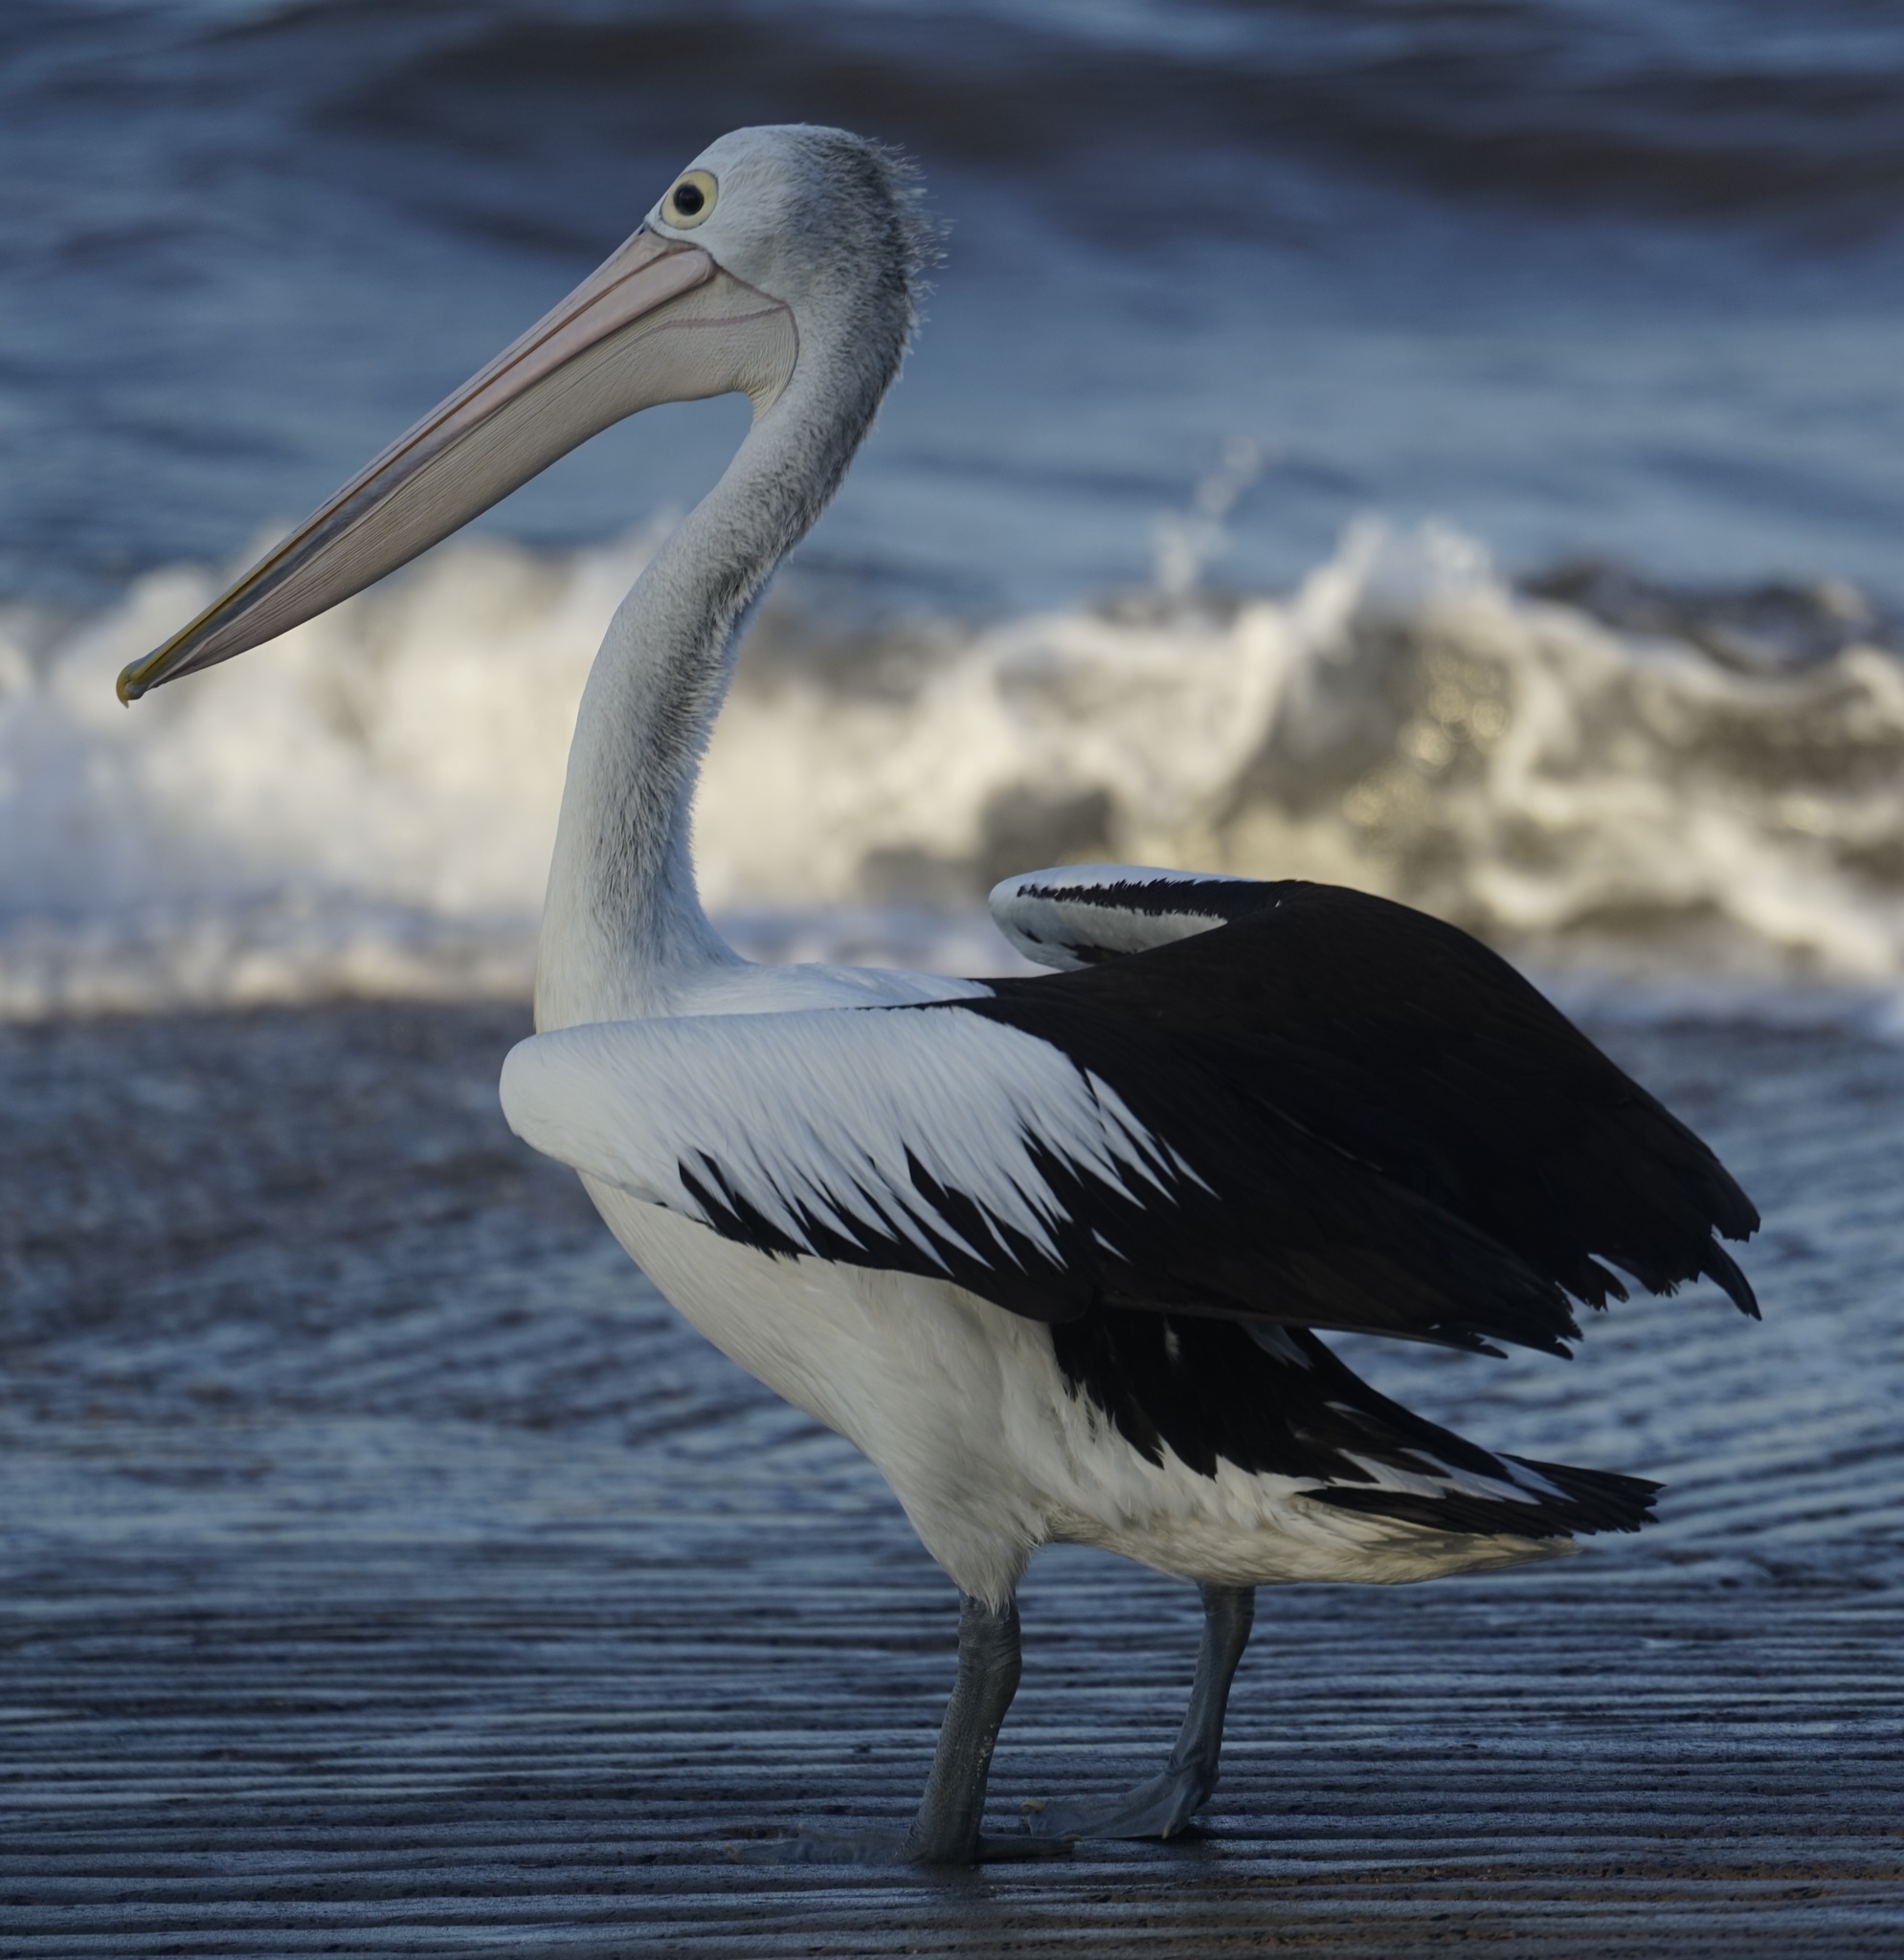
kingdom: Animalia
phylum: Chordata
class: Aves
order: Pelecaniformes
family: Pelecanidae
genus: Pelecanus
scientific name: Pelecanus conspicillatus
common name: Australian pelican
